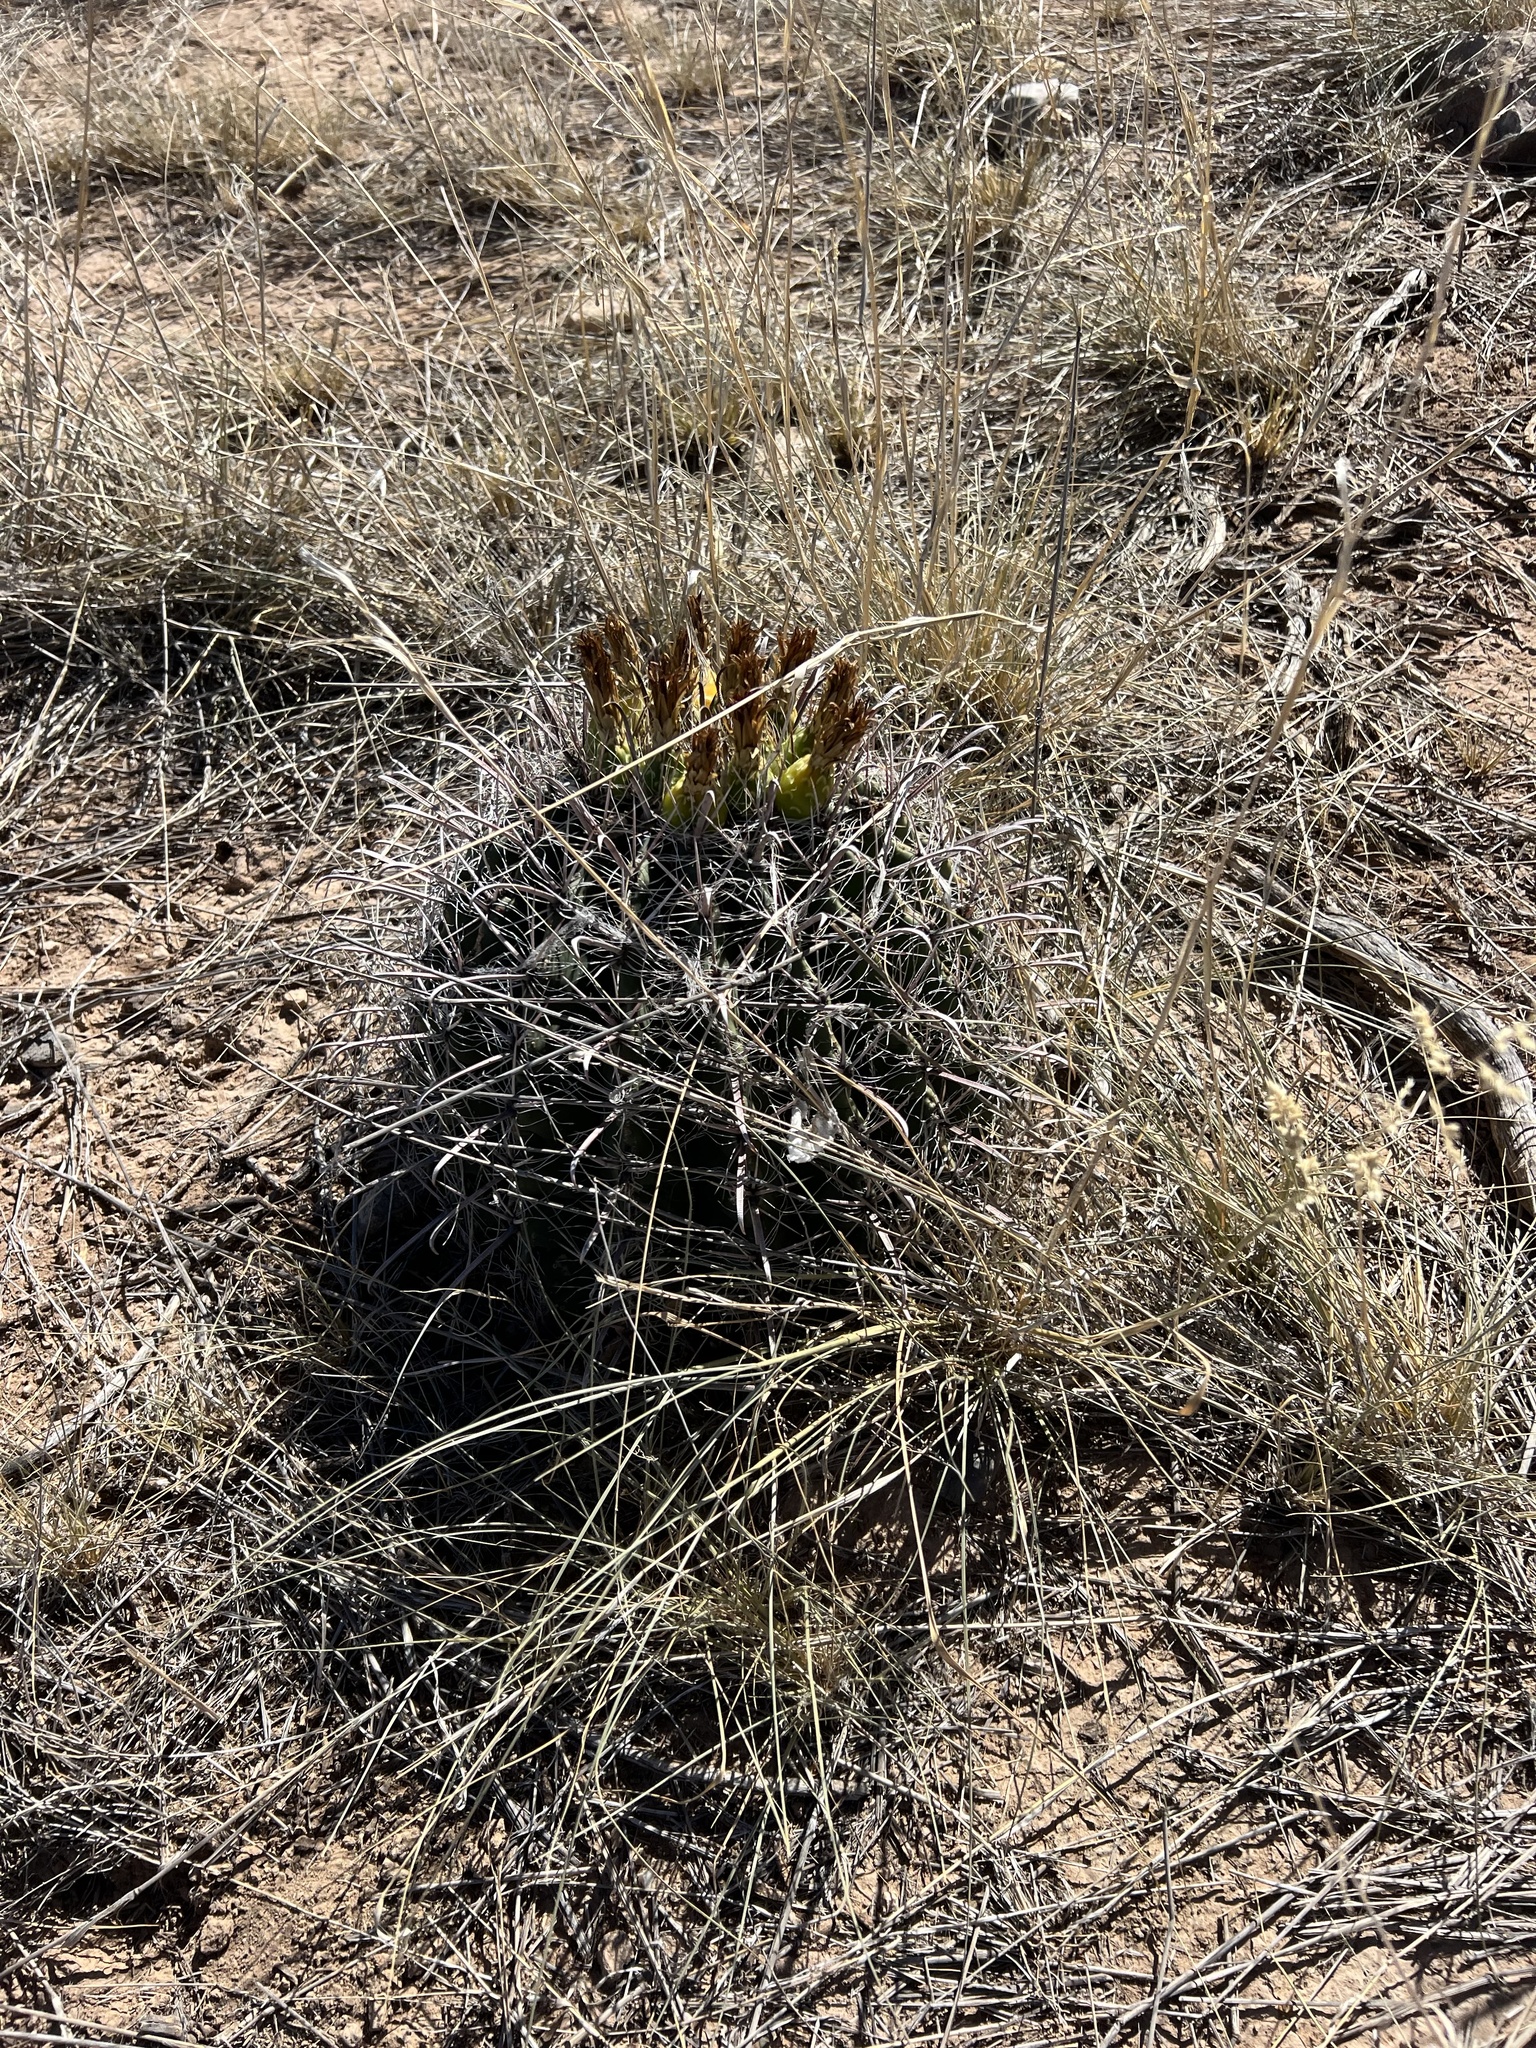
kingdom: Plantae
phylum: Tracheophyta
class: Magnoliopsida
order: Caryophyllales
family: Cactaceae
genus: Ferocactus
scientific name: Ferocactus wislizeni
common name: Candy barrel cactus
